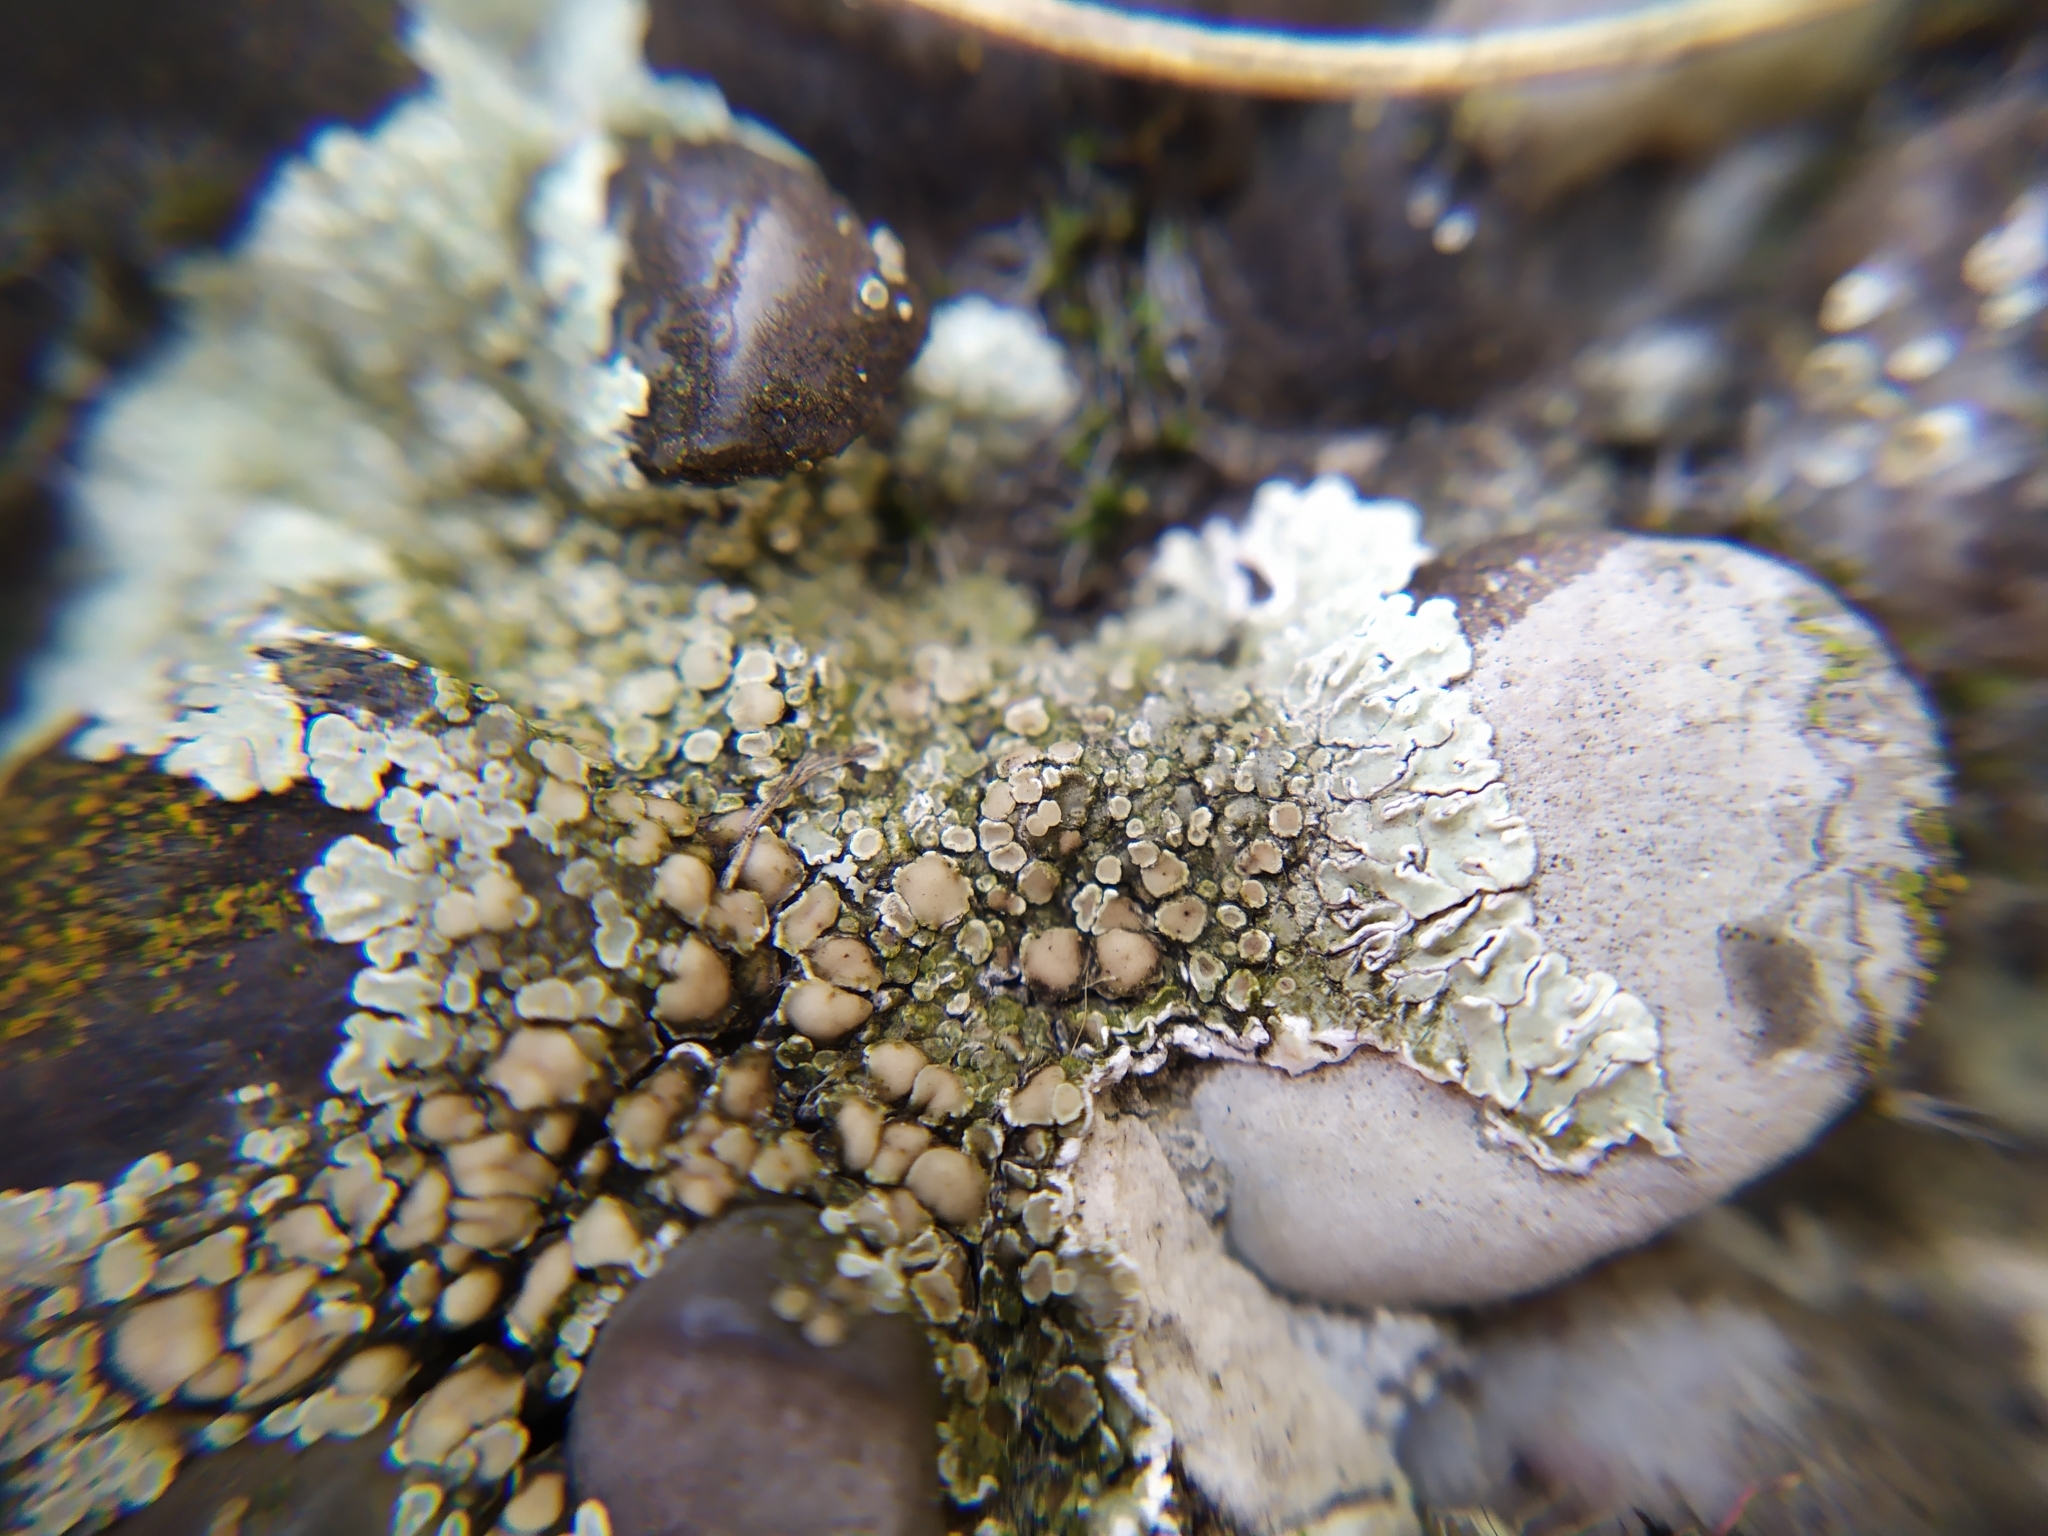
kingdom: Fungi
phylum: Ascomycota
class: Lecanoromycetes
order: Lecanorales
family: Lecanoraceae
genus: Protoparmeliopsis
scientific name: Protoparmeliopsis muralis
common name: Stonewall rim lichen
